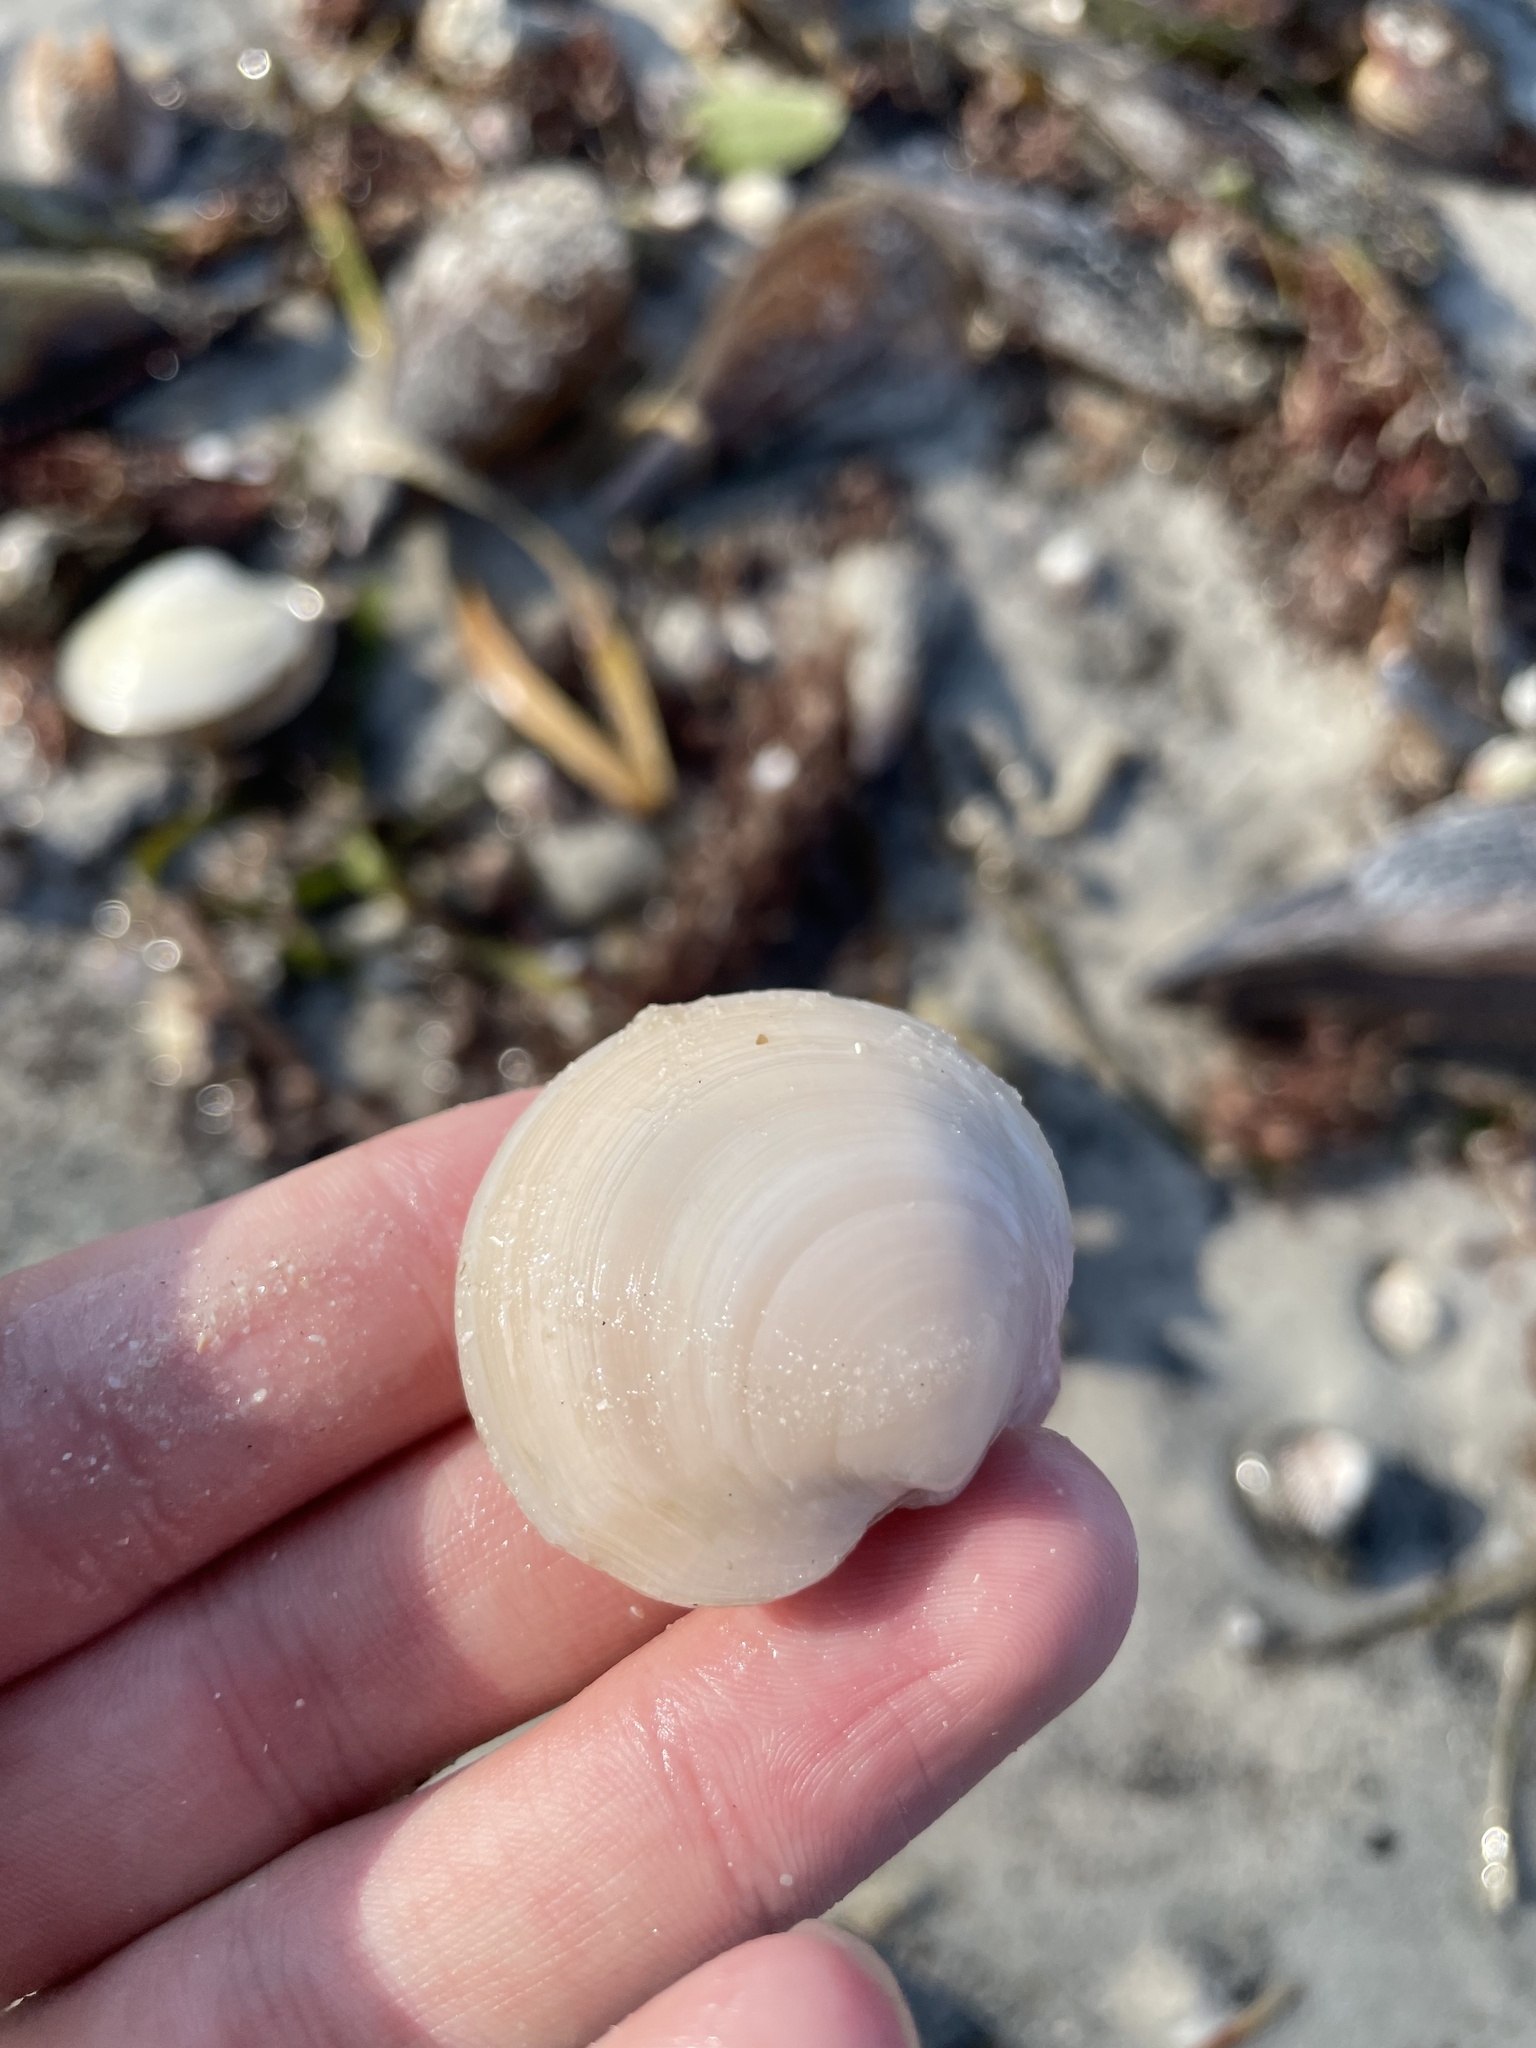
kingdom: Animalia
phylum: Mollusca
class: Bivalvia
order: Lucinida
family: Lucinidae
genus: Anodontia
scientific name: Anodontia alba
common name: Buttercup lucine
